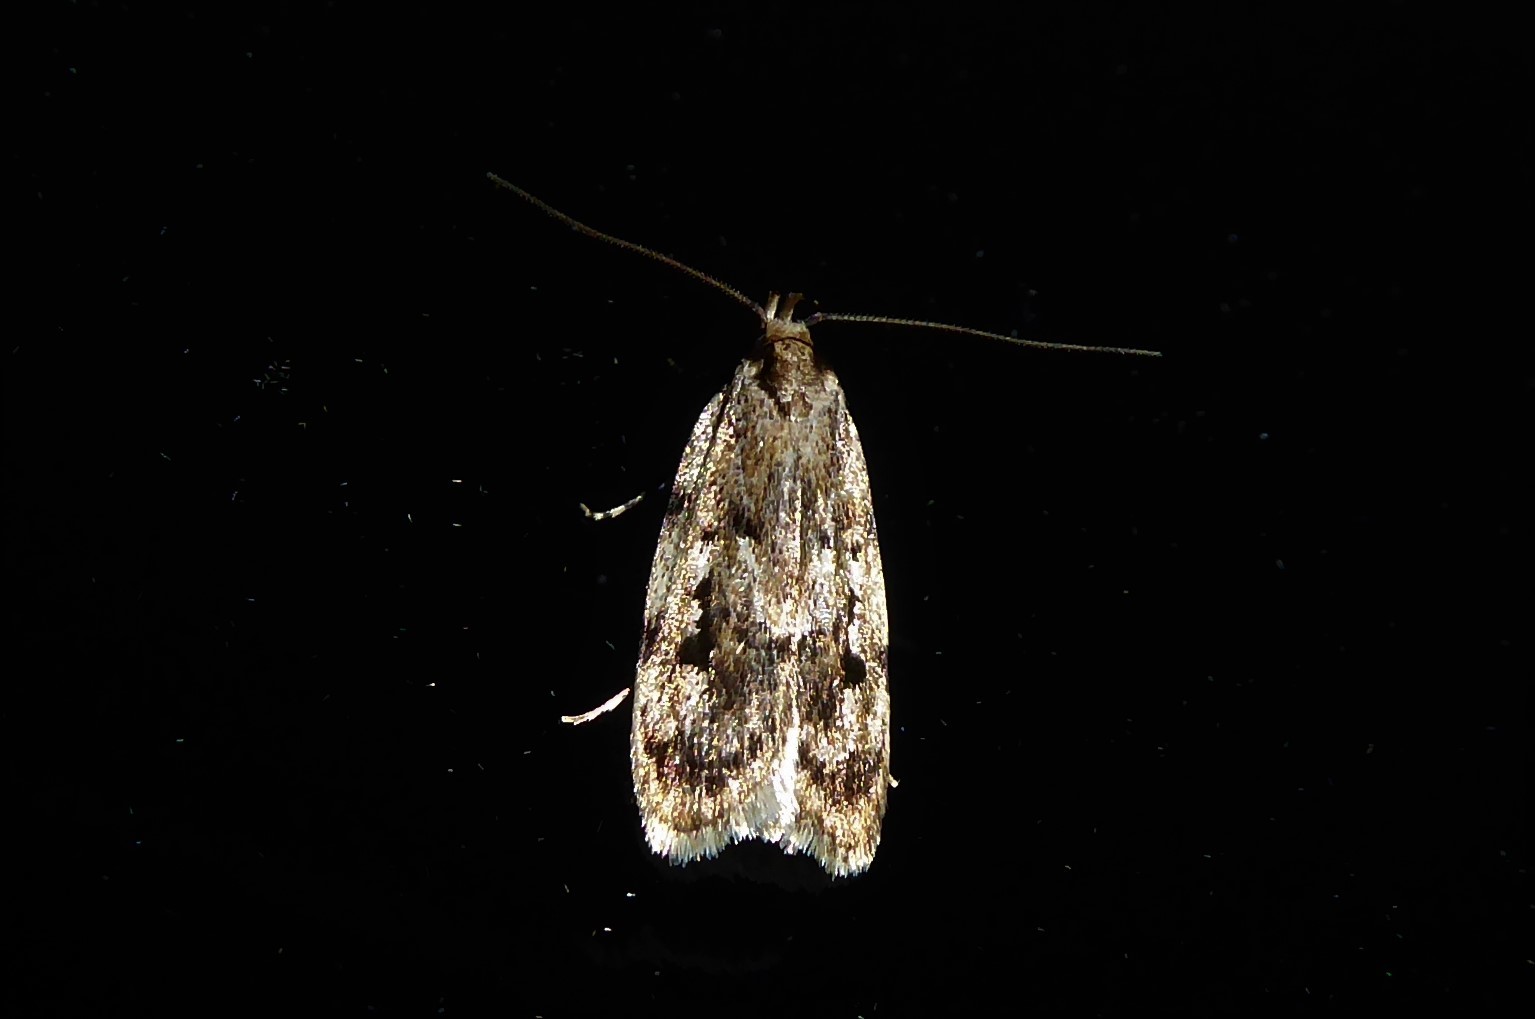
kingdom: Animalia
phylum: Arthropoda
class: Insecta
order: Lepidoptera
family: Oecophoridae
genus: Barea
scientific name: Barea exarcha
